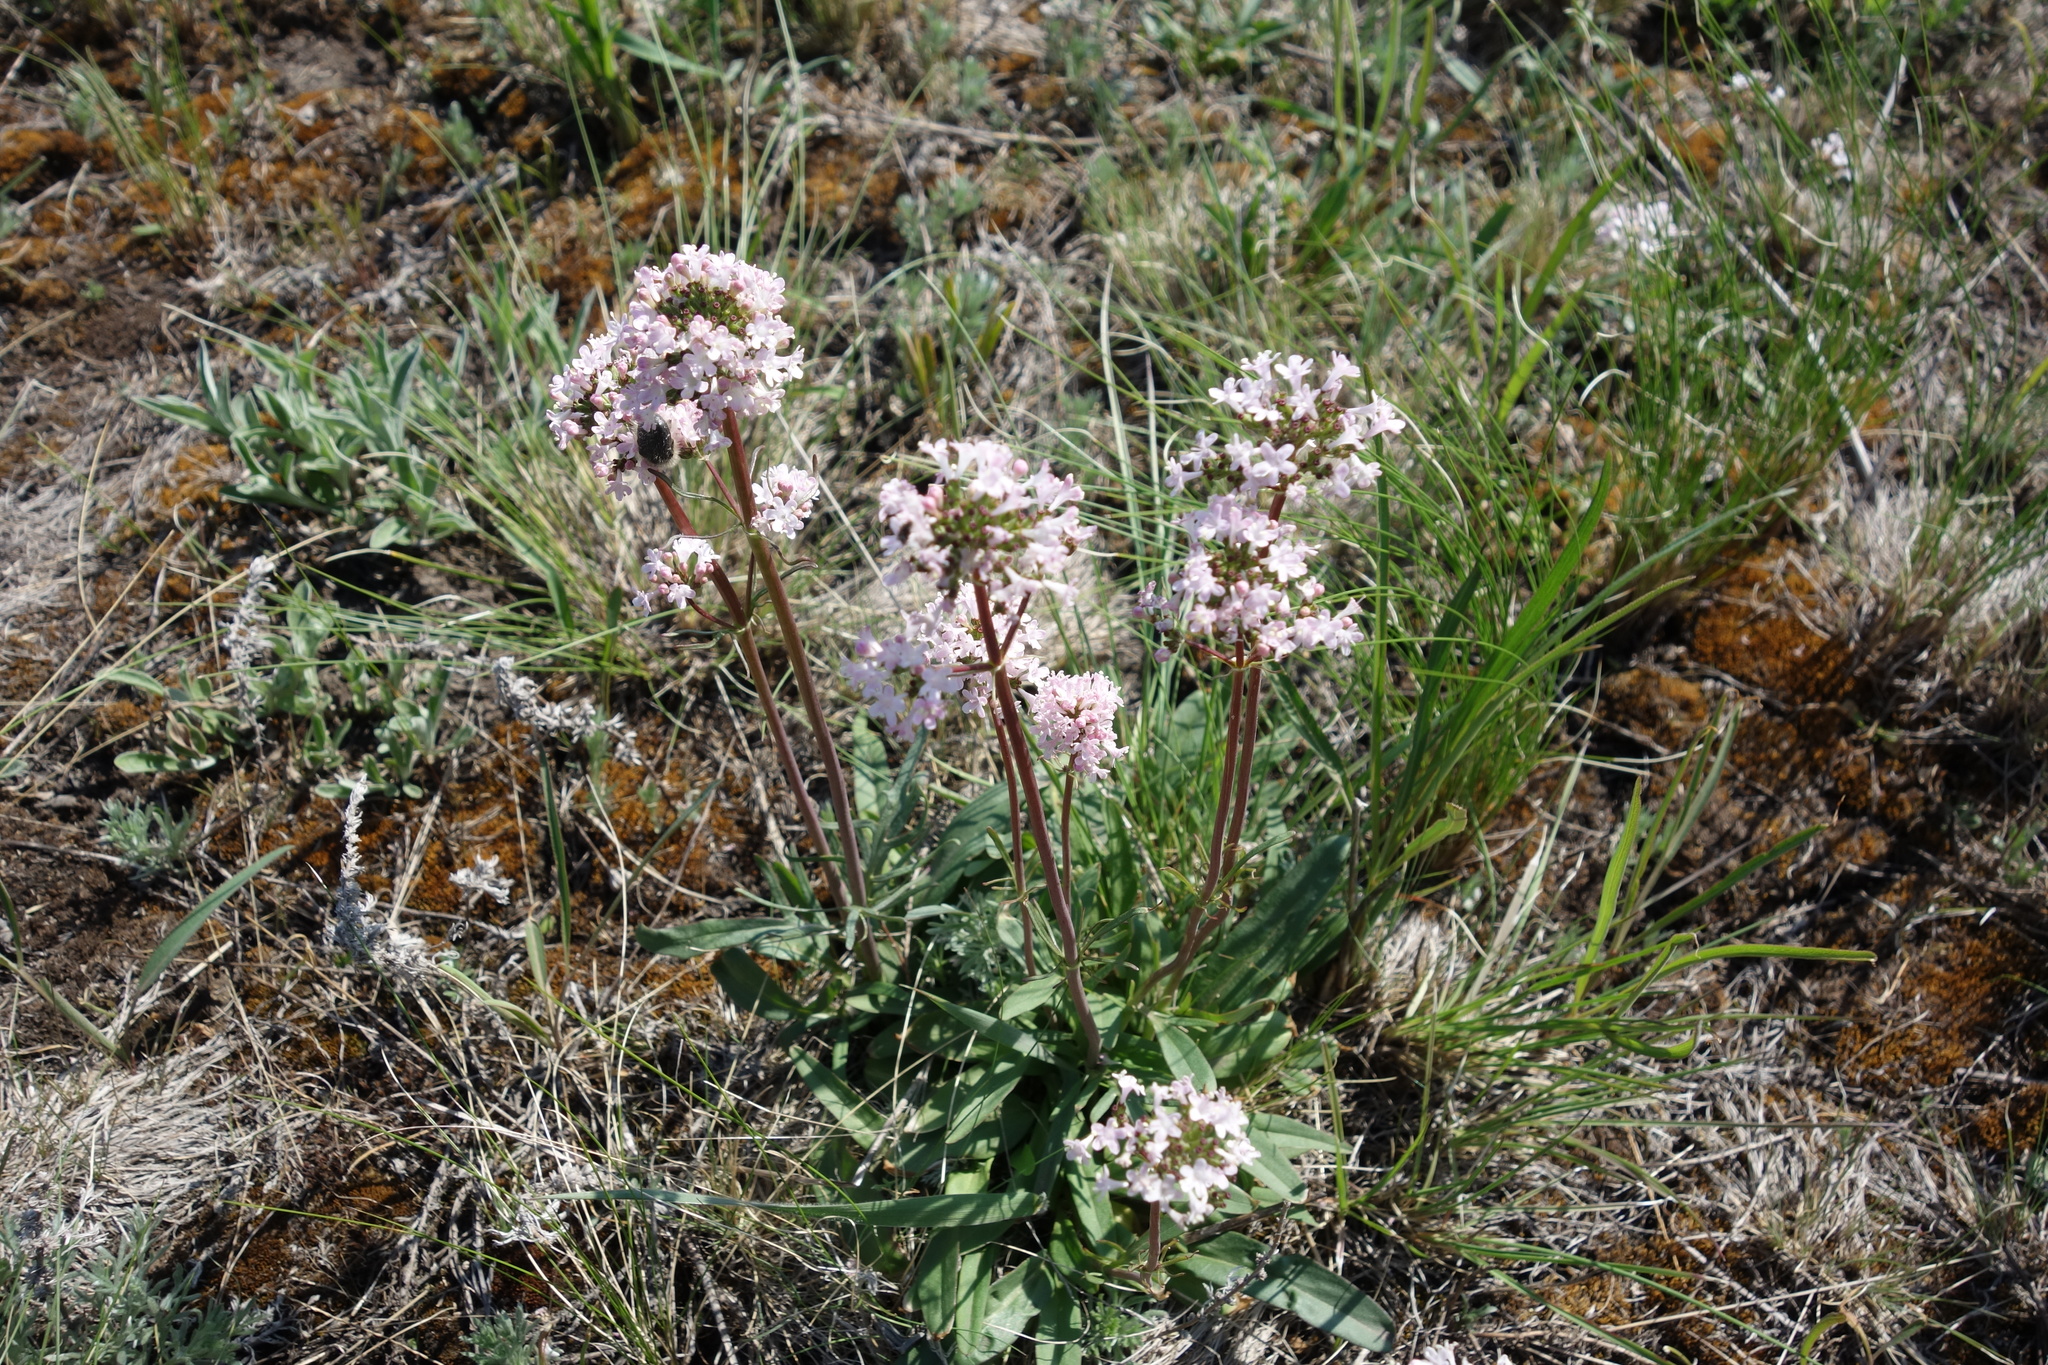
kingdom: Plantae
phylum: Tracheophyta
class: Magnoliopsida
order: Dipsacales
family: Caprifoliaceae
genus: Valeriana
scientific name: Valeriana tuberosa
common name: Tuberous valerian
